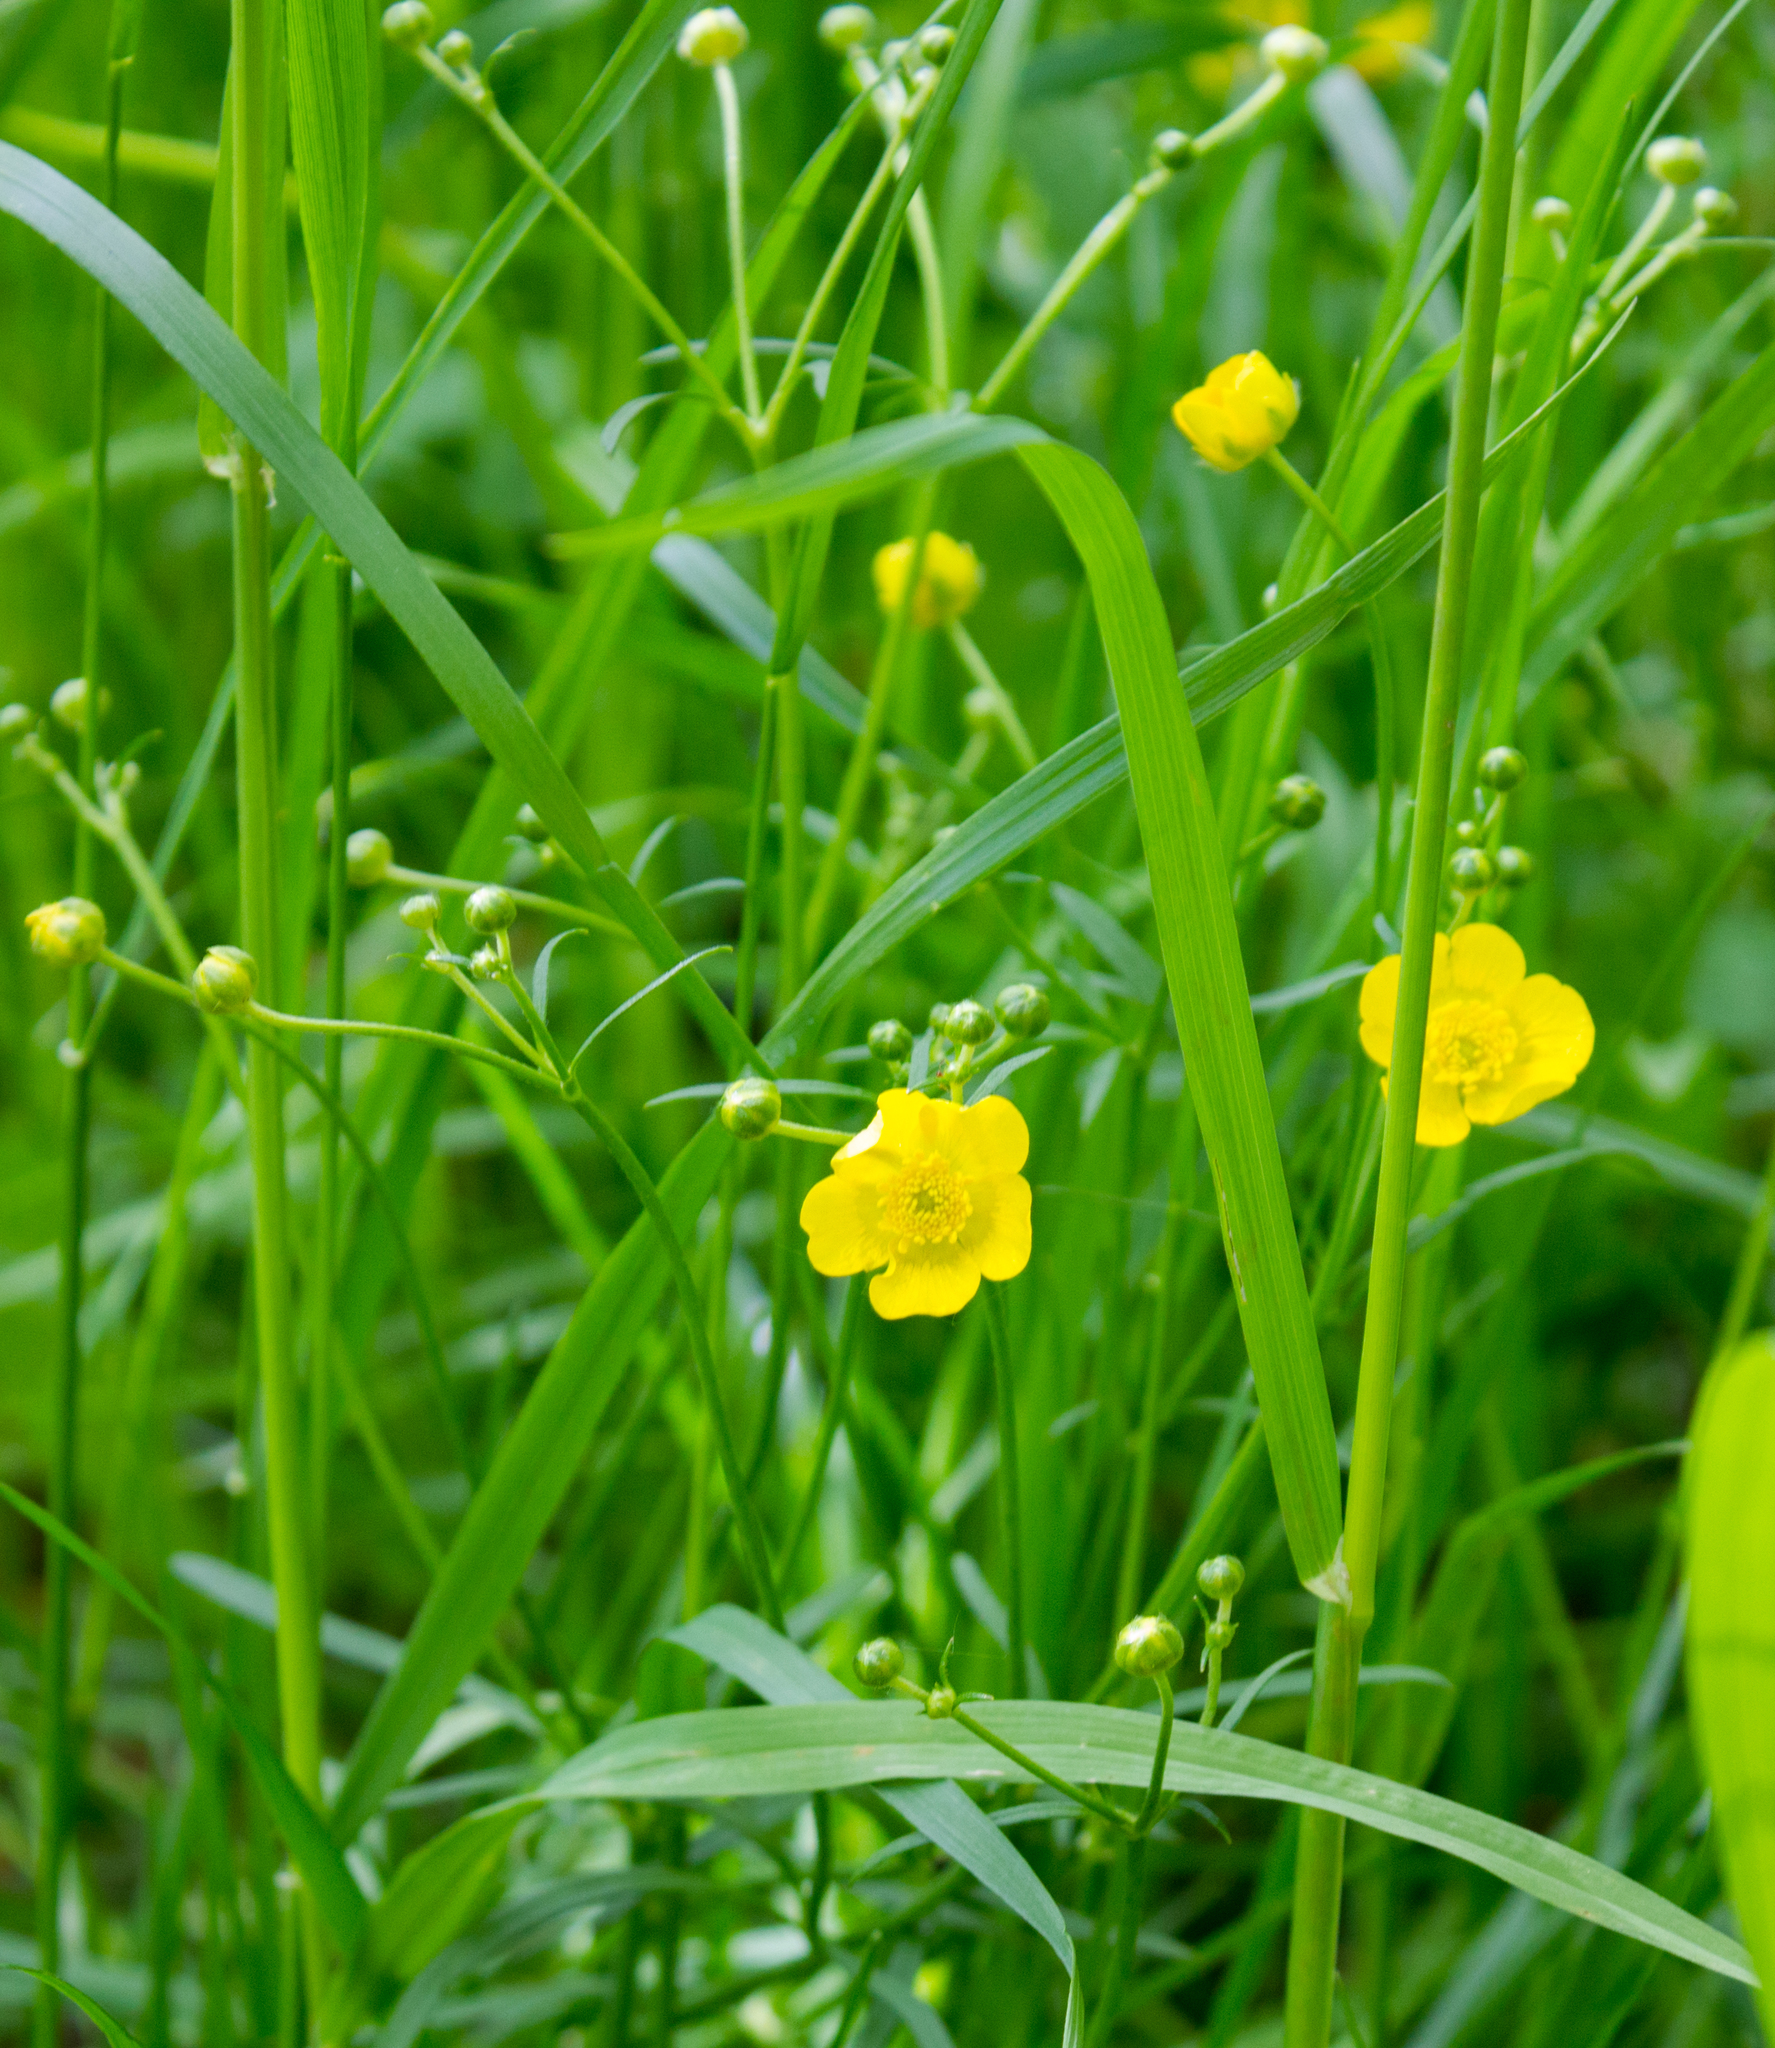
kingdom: Plantae
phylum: Tracheophyta
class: Magnoliopsida
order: Ranunculales
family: Ranunculaceae
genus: Ranunculus
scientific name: Ranunculus acris
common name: Meadow buttercup
